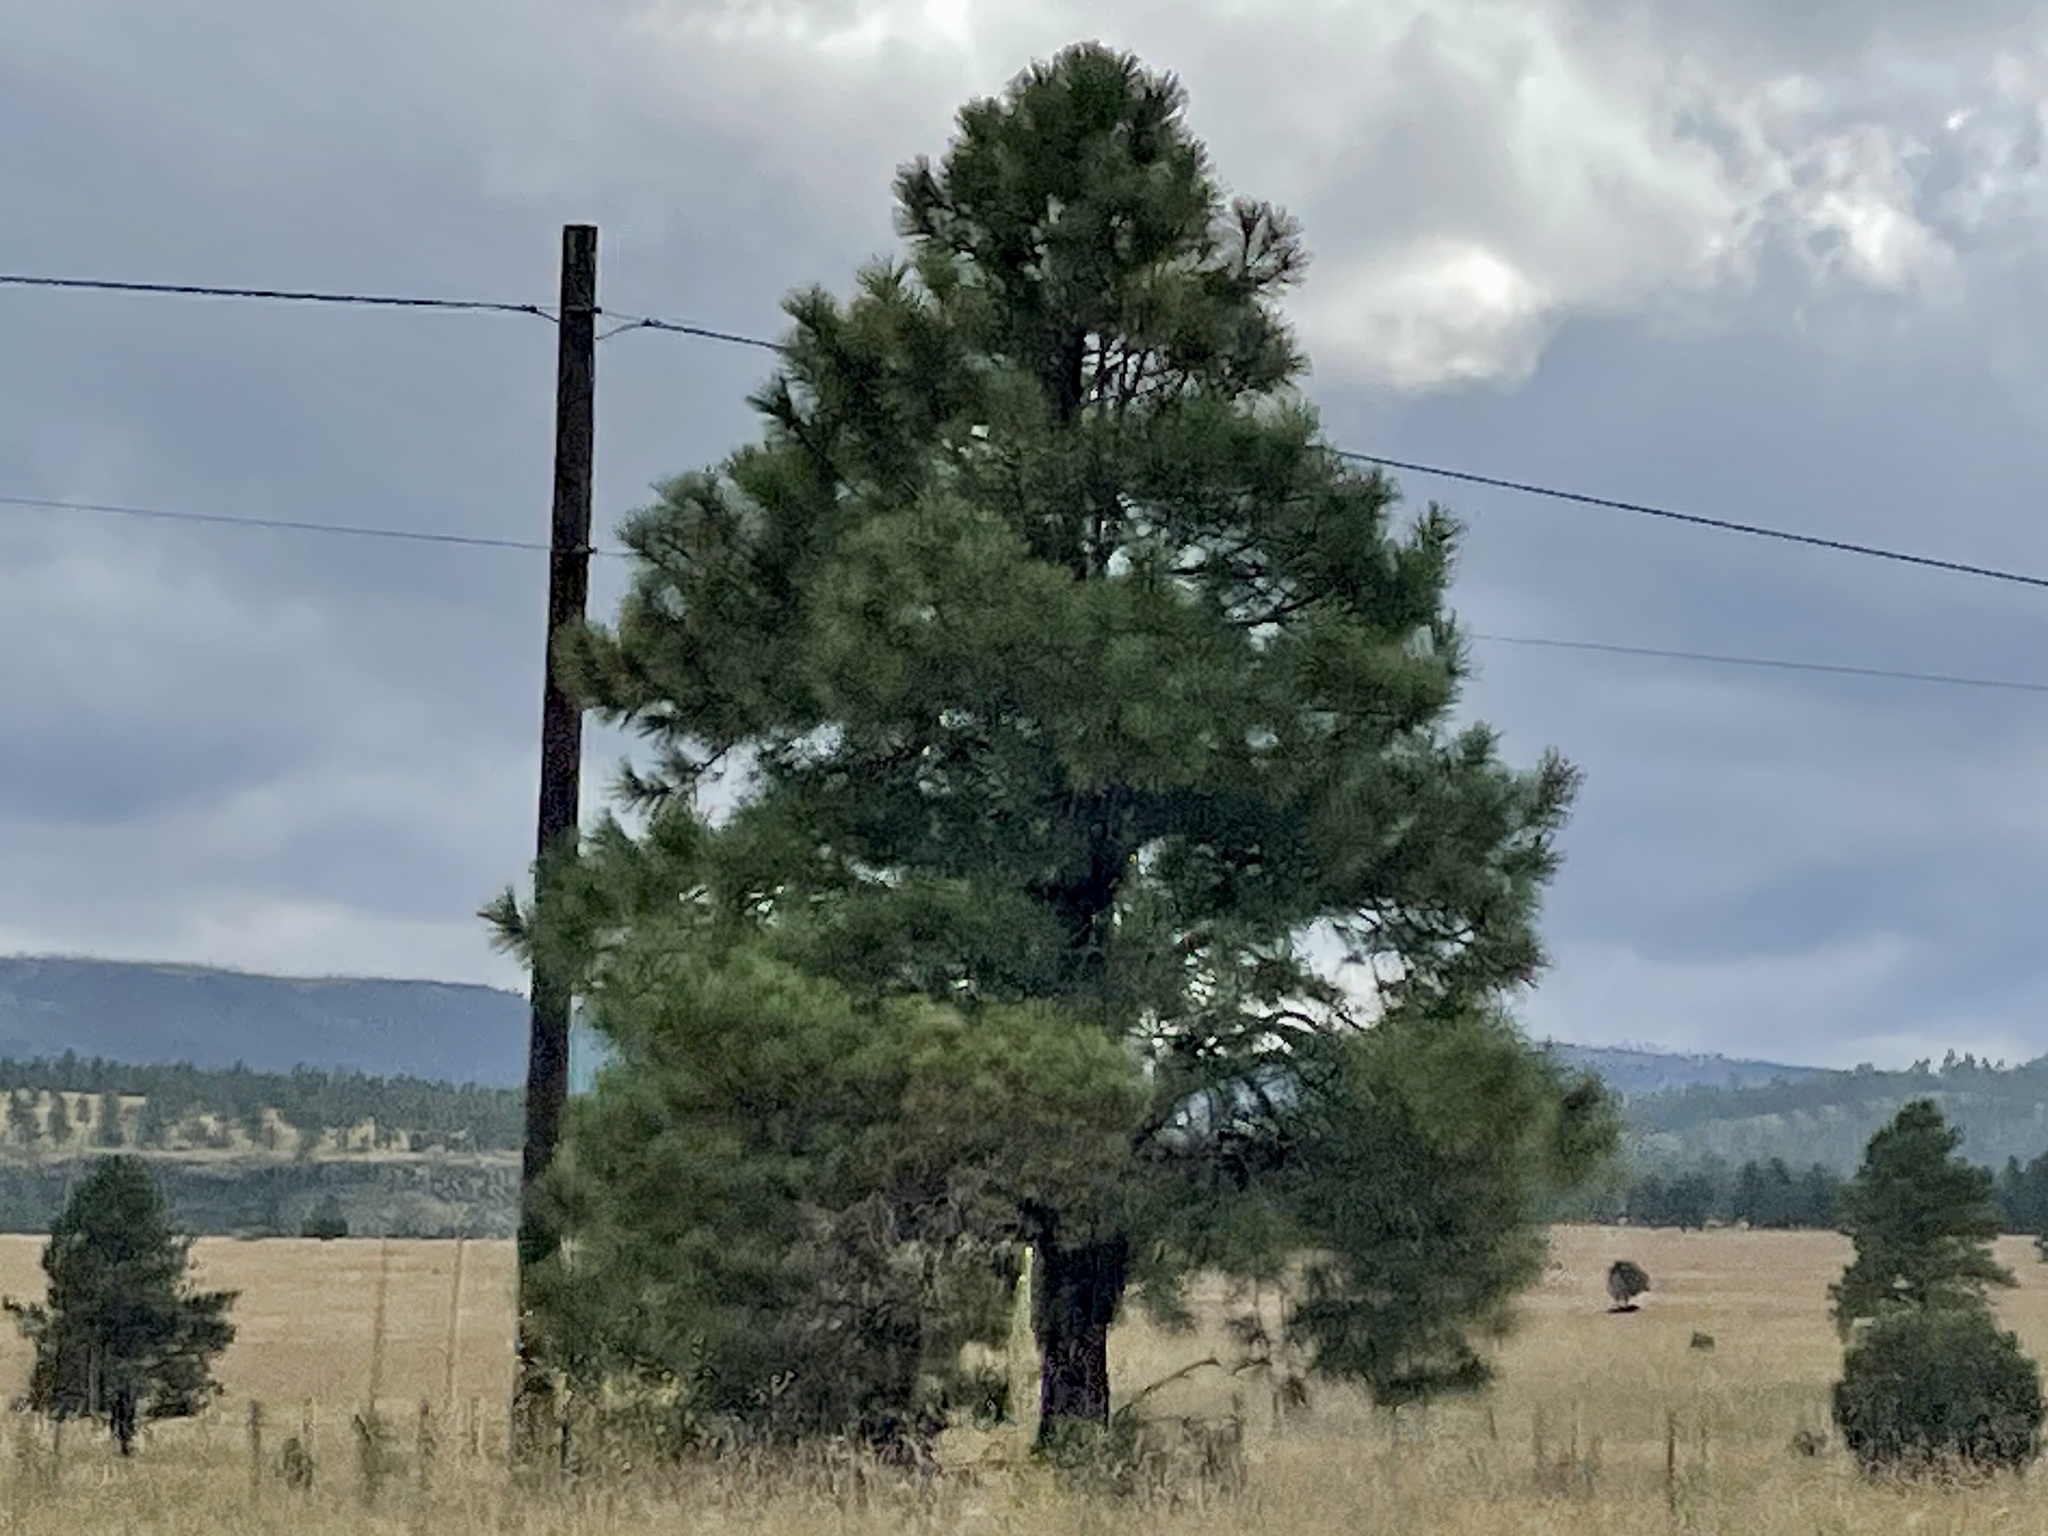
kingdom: Plantae
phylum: Tracheophyta
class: Pinopsida
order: Pinales
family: Pinaceae
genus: Pinus
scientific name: Pinus ponderosa
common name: Western yellow-pine
